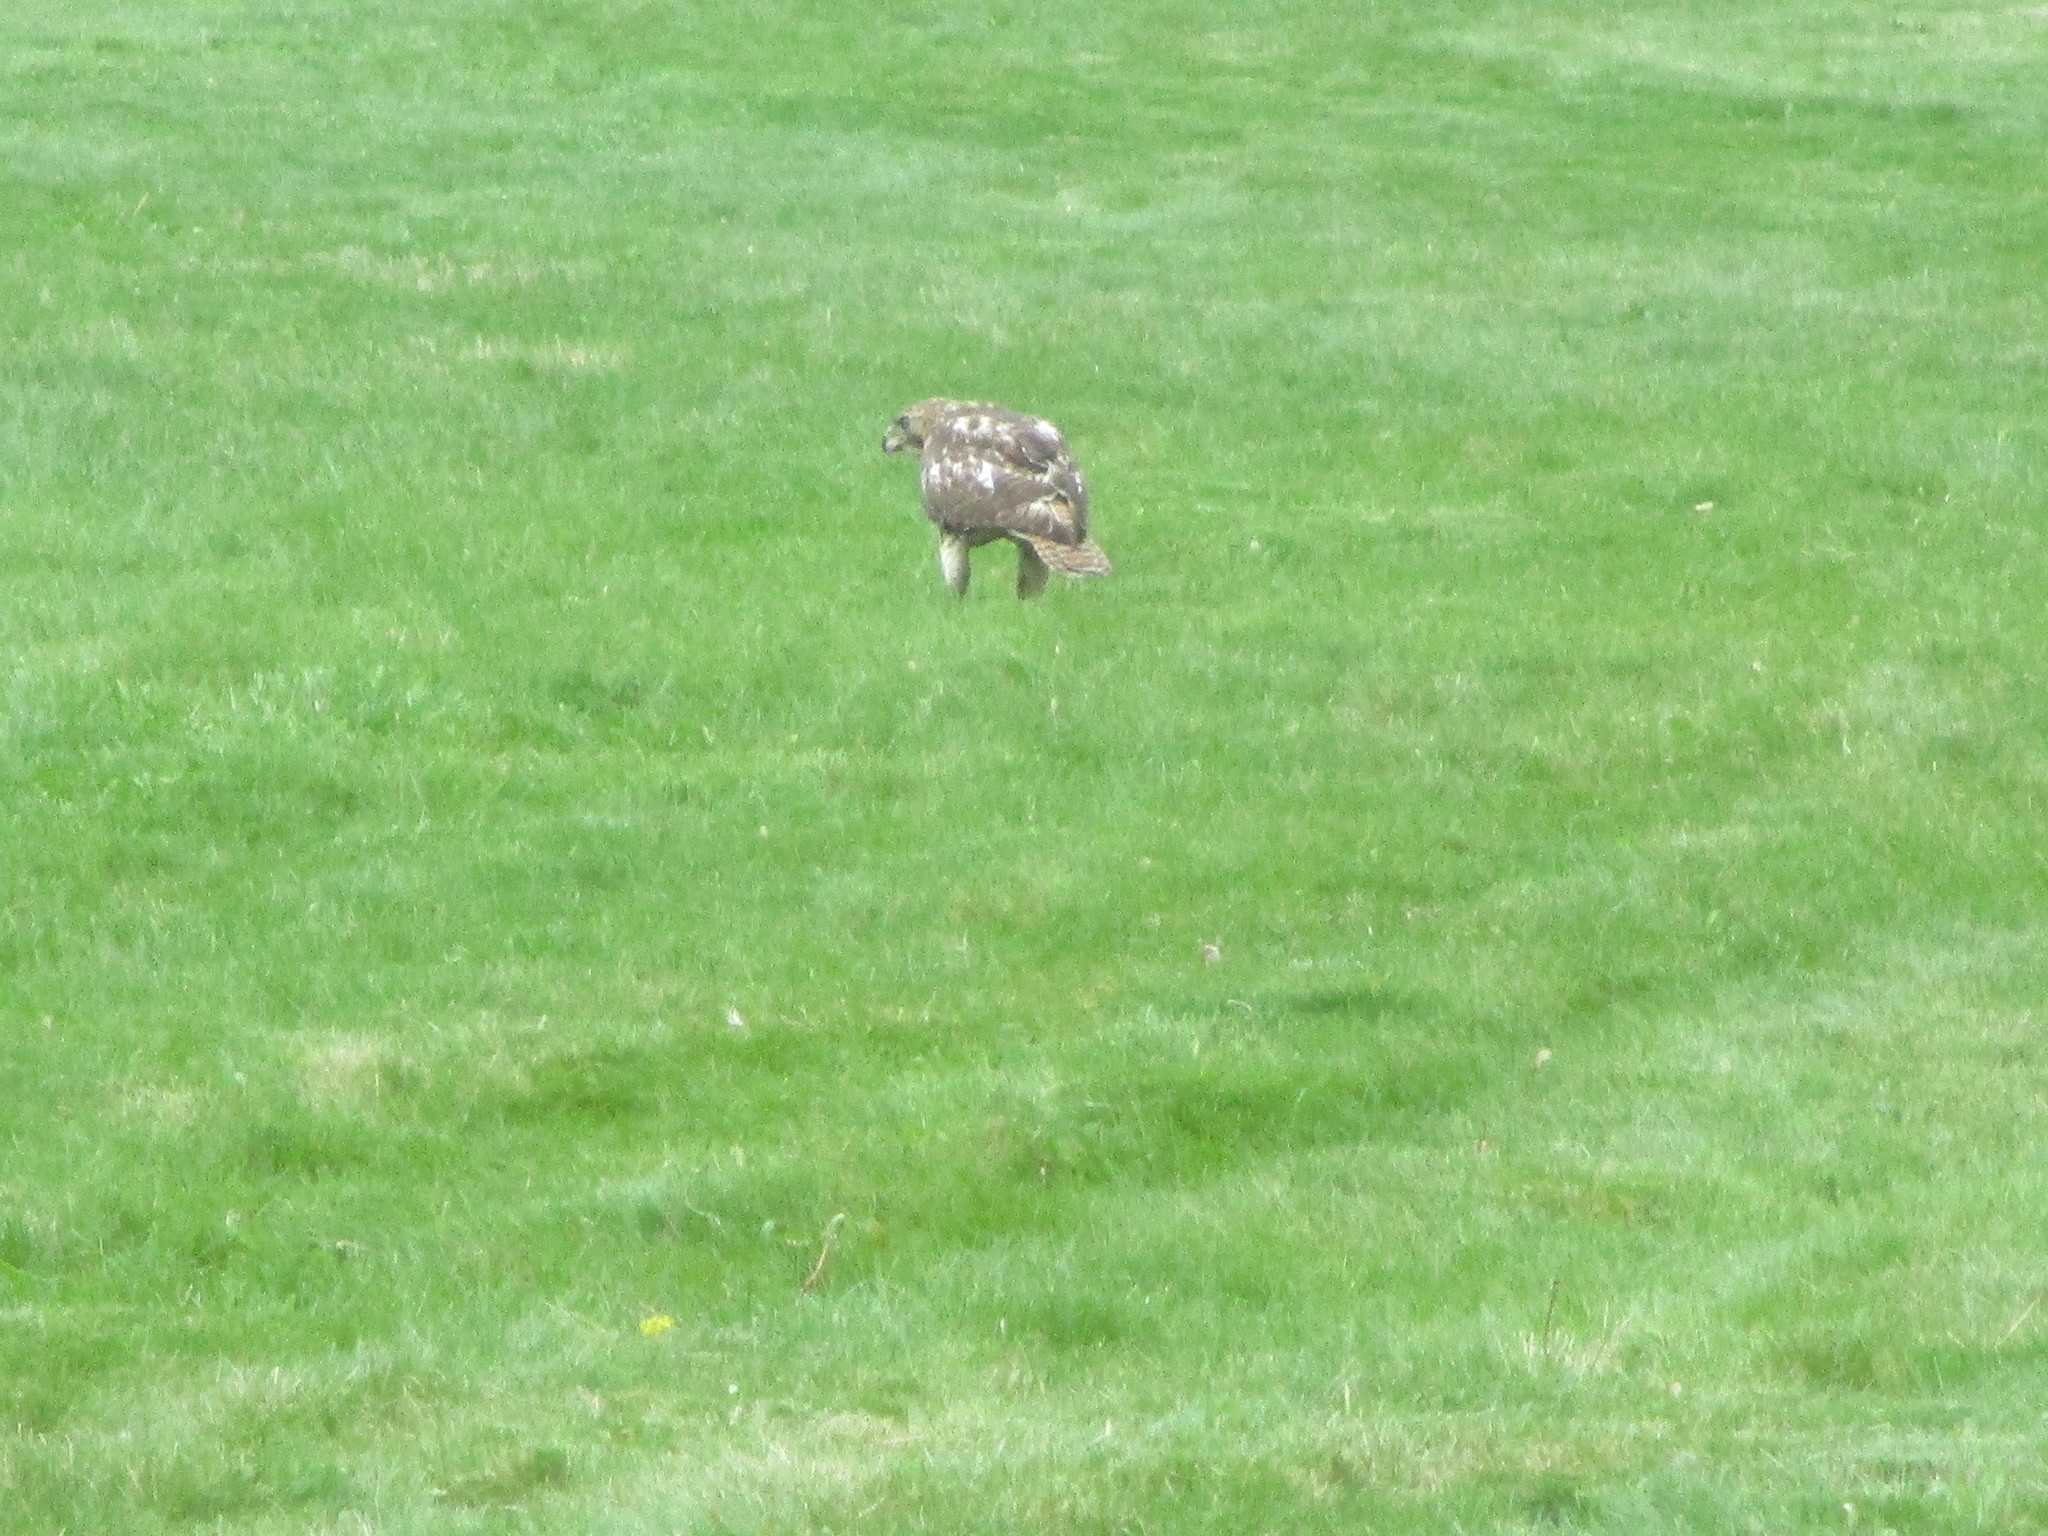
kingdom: Animalia
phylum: Chordata
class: Aves
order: Accipitriformes
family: Accipitridae
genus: Buteo
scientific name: Buteo jamaicensis
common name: Red-tailed hawk
